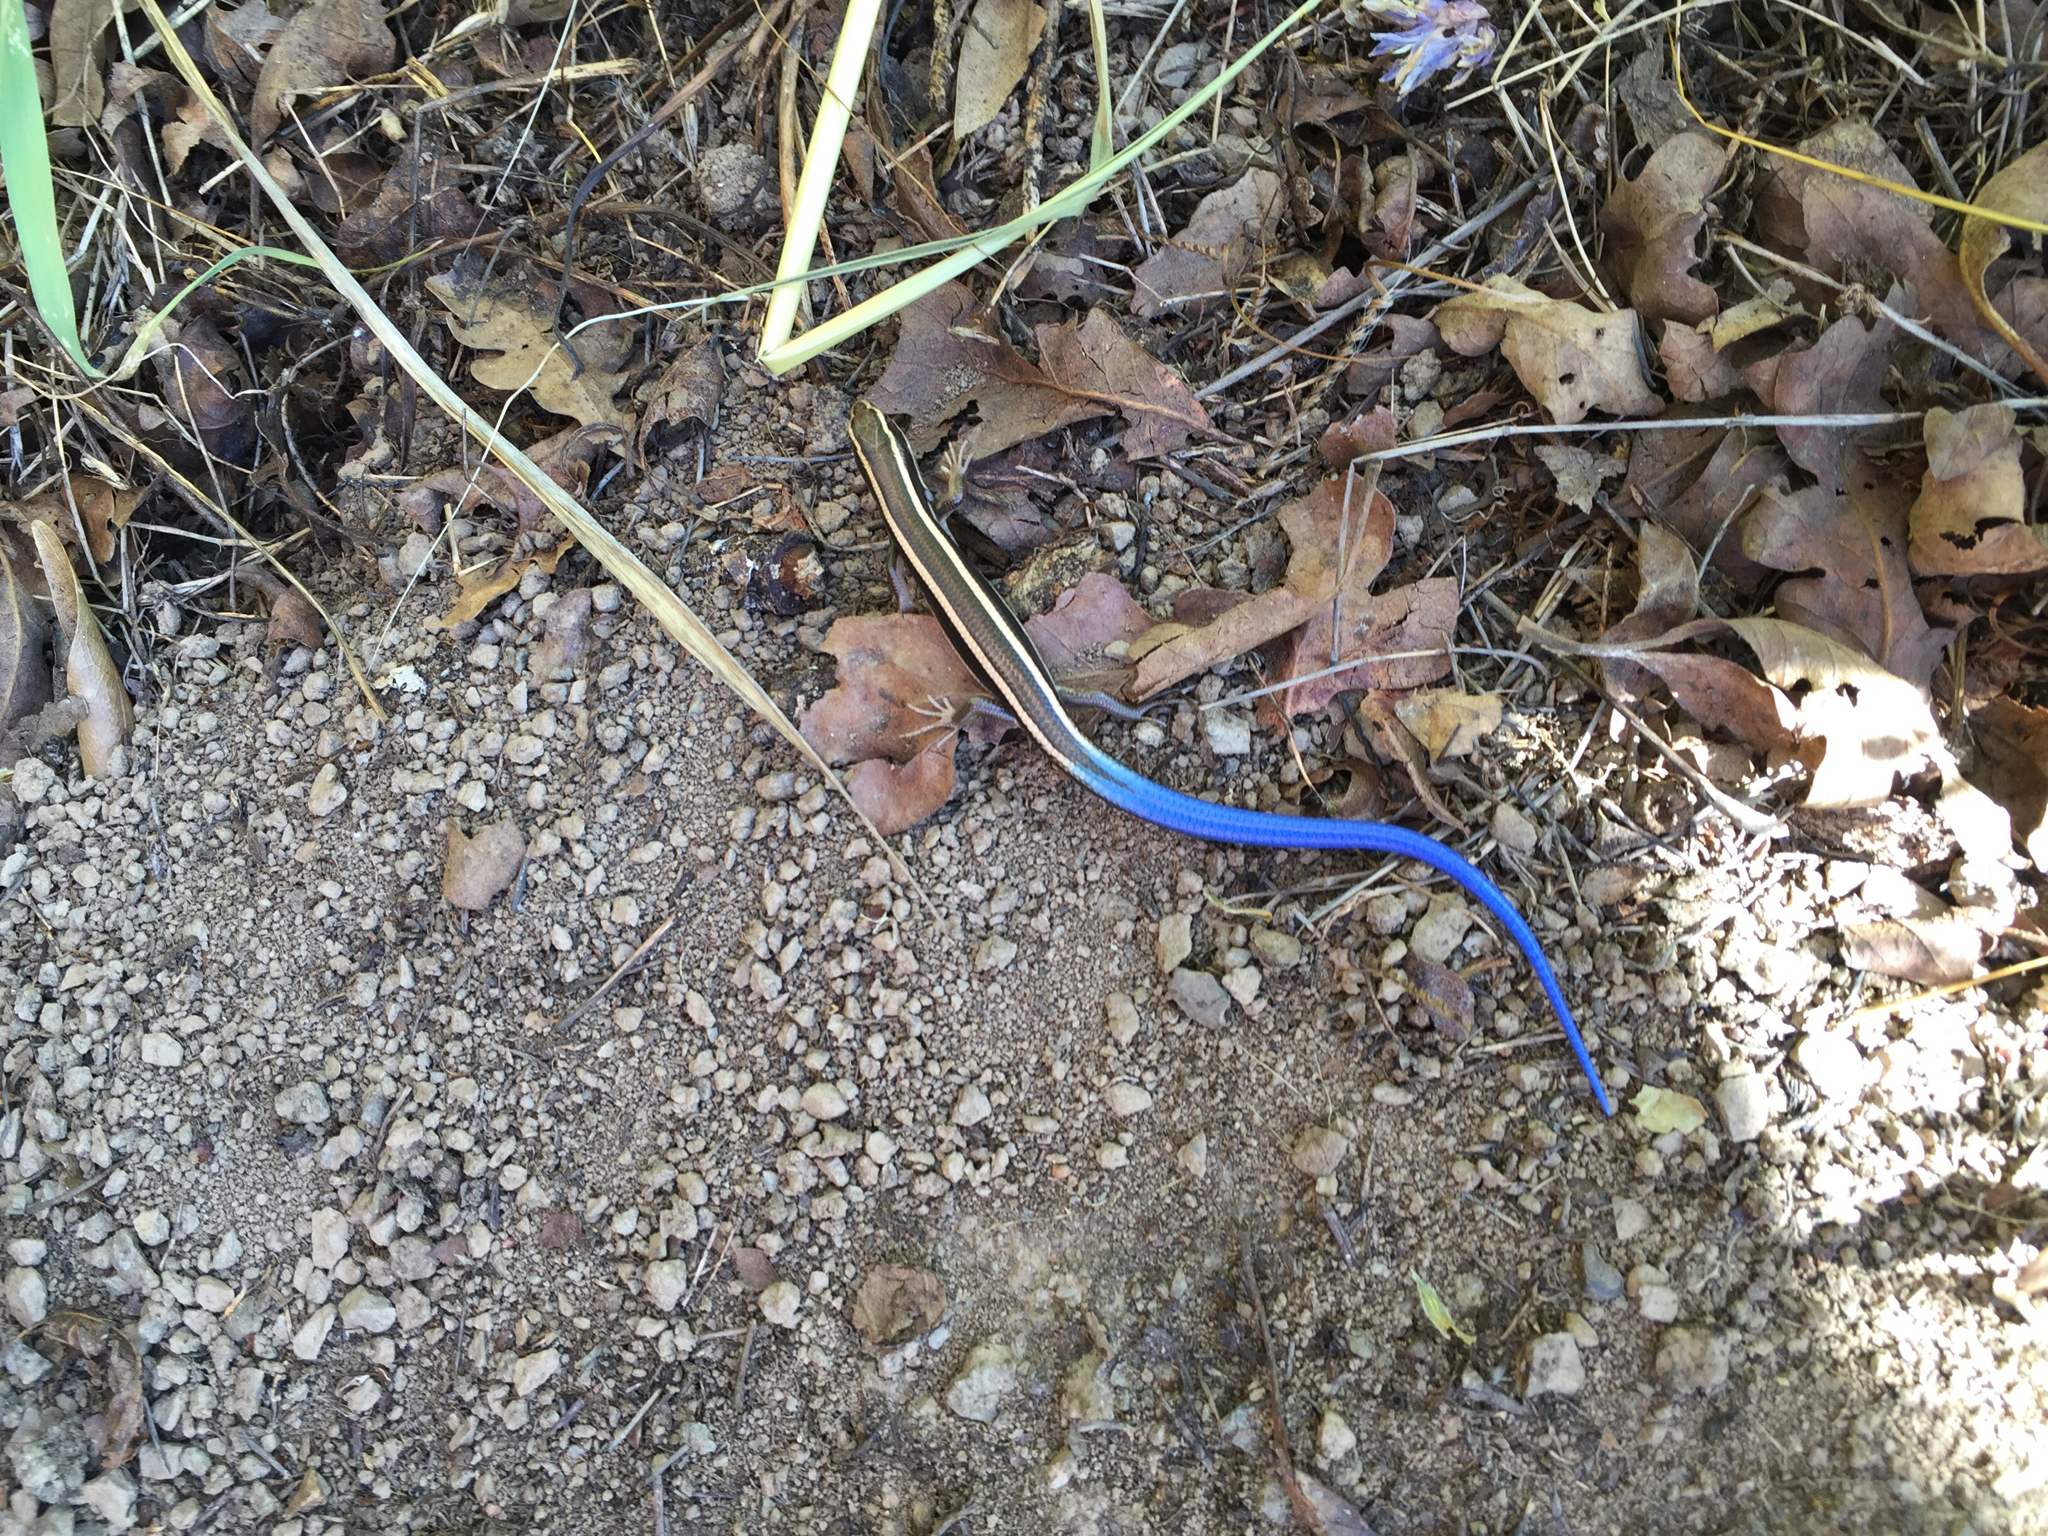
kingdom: Animalia
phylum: Chordata
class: Squamata
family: Scincidae
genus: Plestiodon
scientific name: Plestiodon skiltonianus
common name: Coronado island skink [interparietalis]
